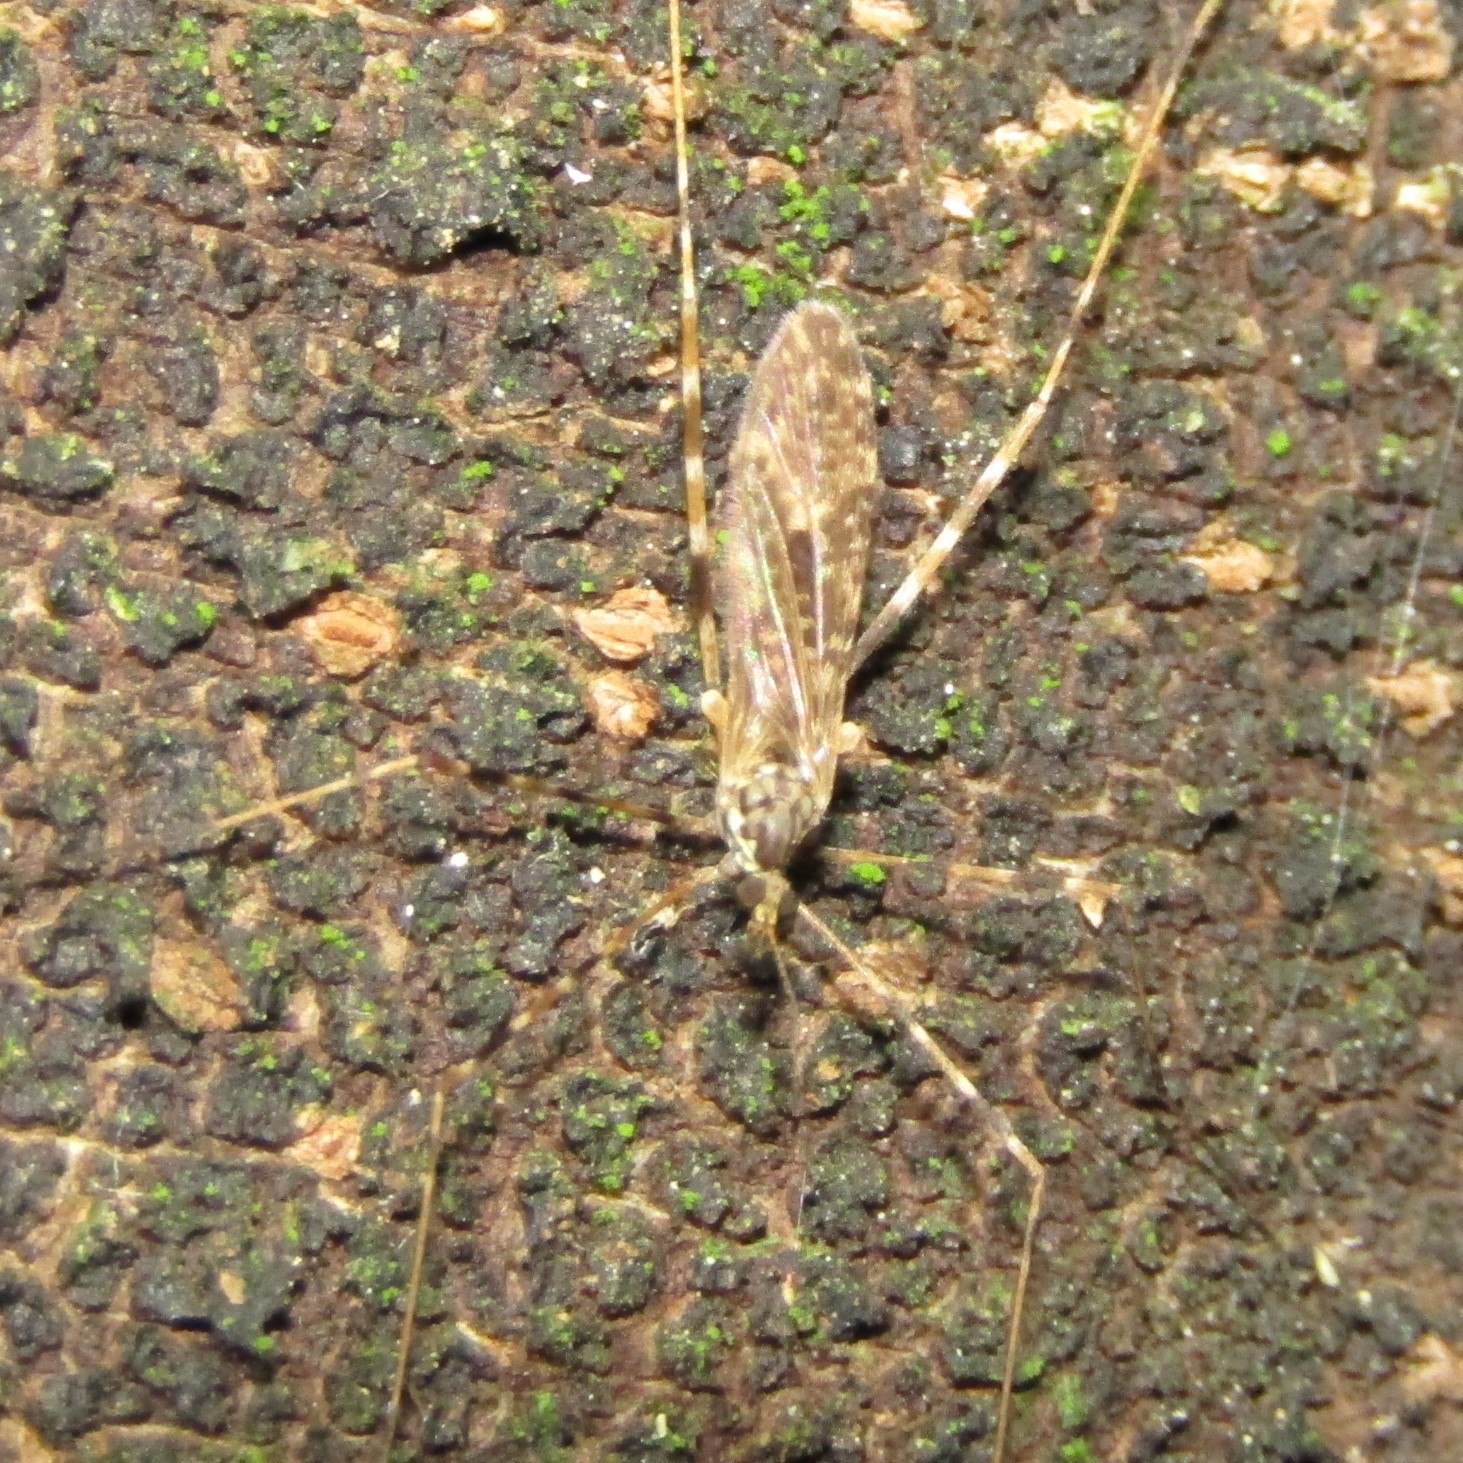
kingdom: Animalia
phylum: Arthropoda
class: Insecta
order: Diptera
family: Limoniidae
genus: Amphineurus
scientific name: Amphineurus hudsoni
